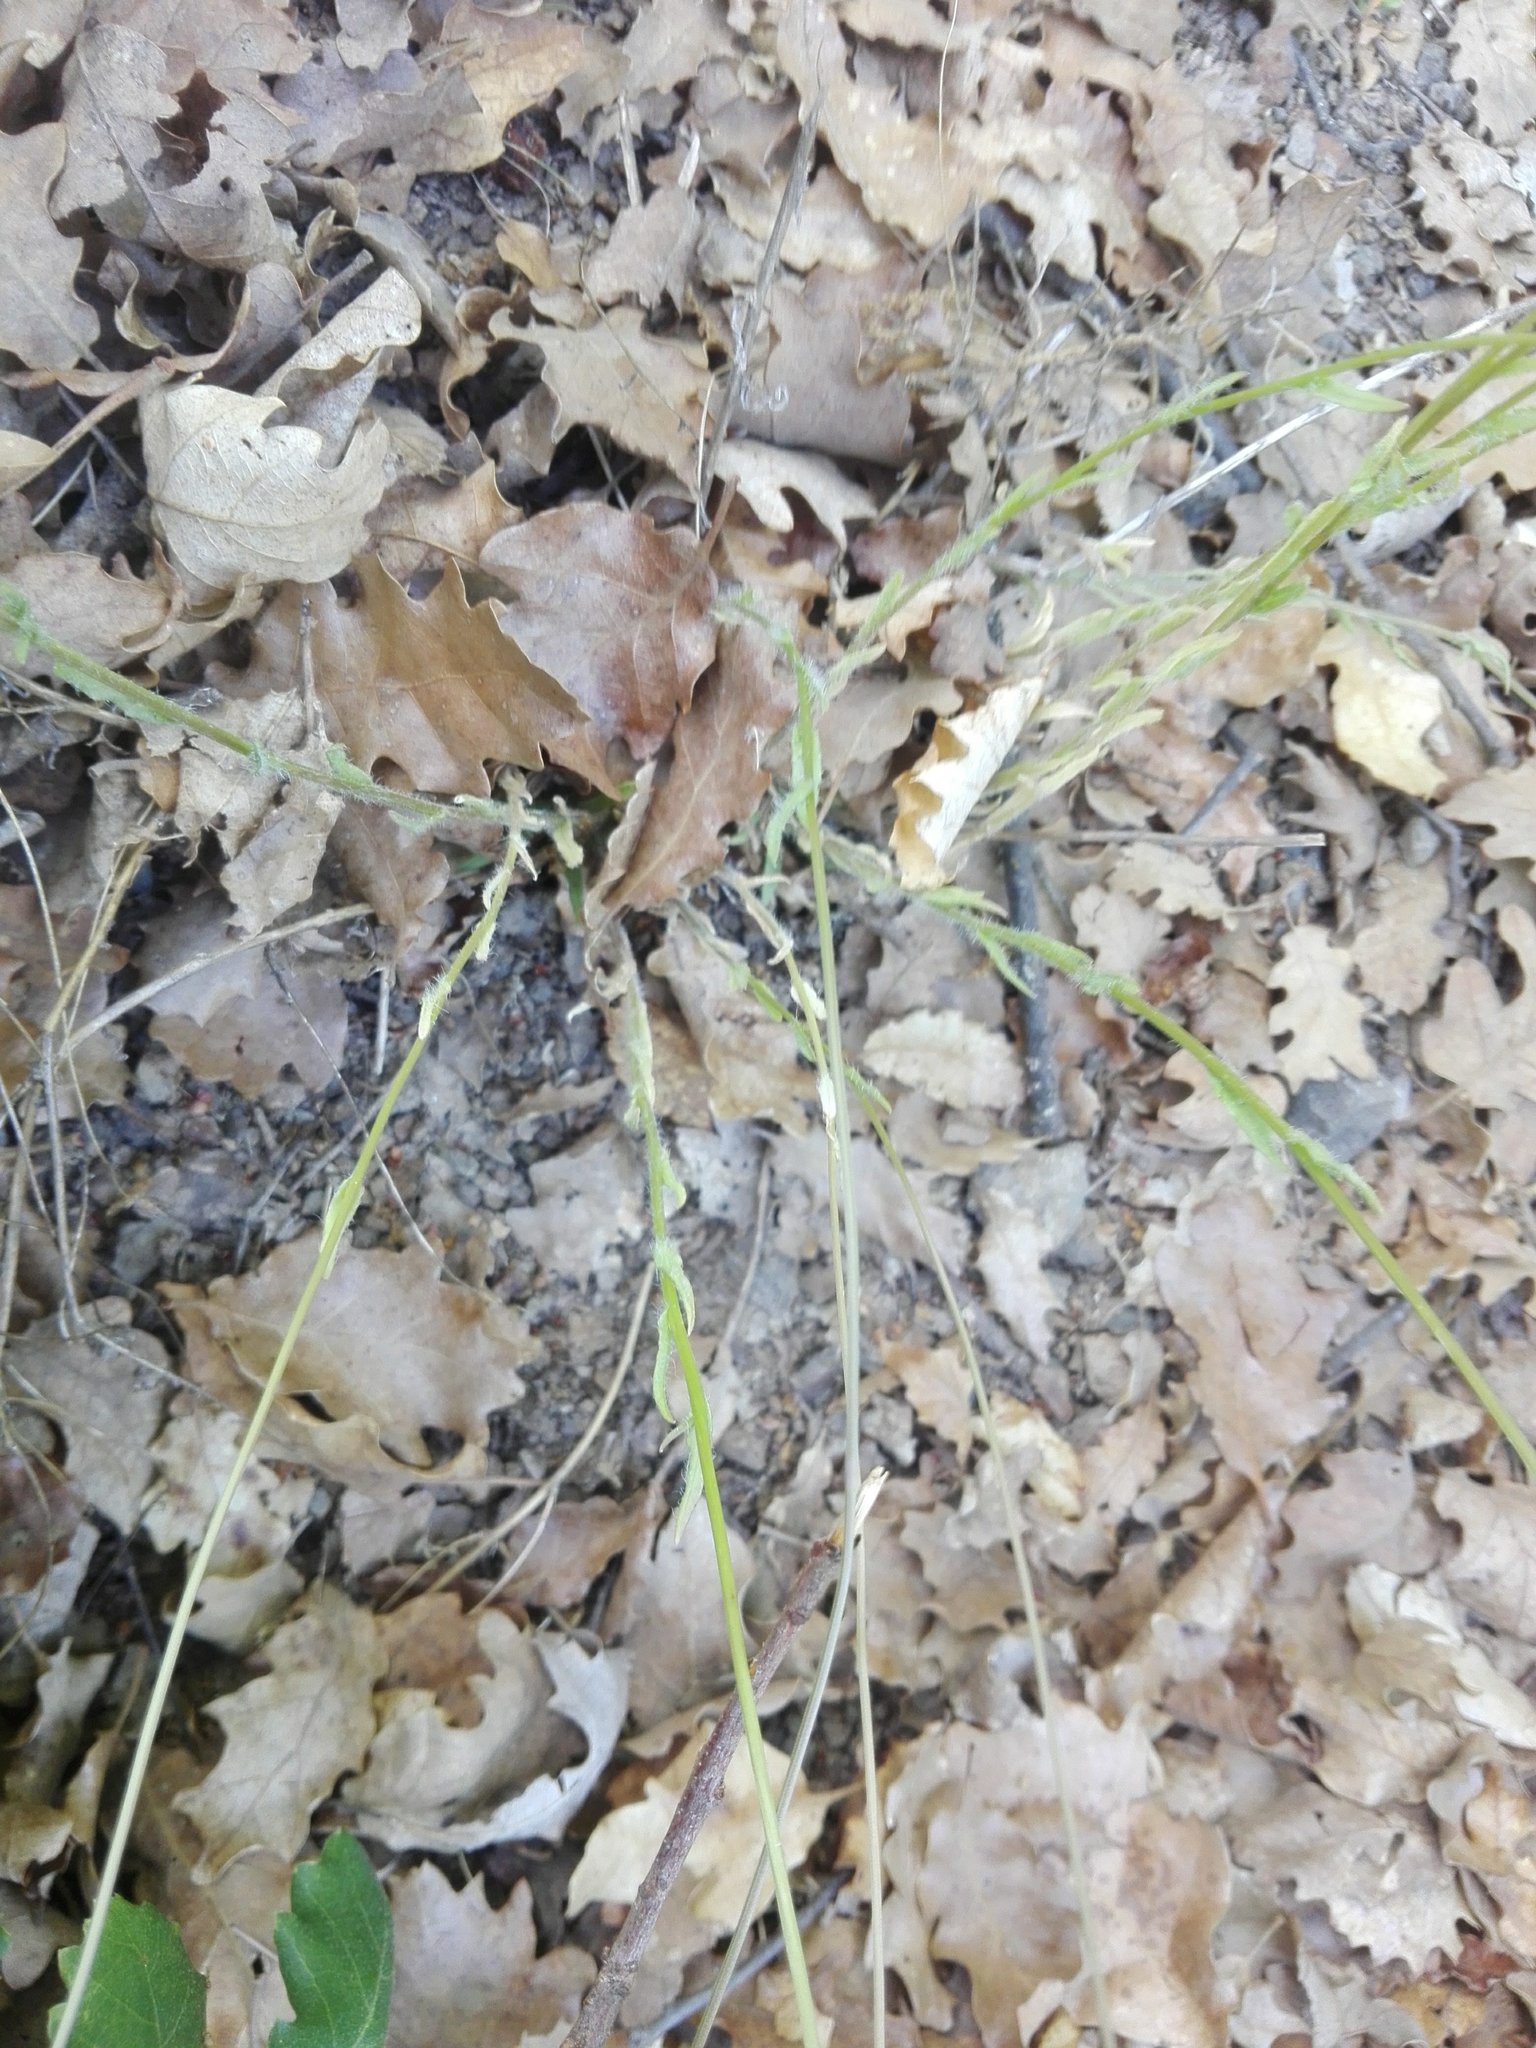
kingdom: Plantae
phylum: Tracheophyta
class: Magnoliopsida
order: Asterales
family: Campanulaceae
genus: Jasione
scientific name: Jasione montana
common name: Sheep's-bit
